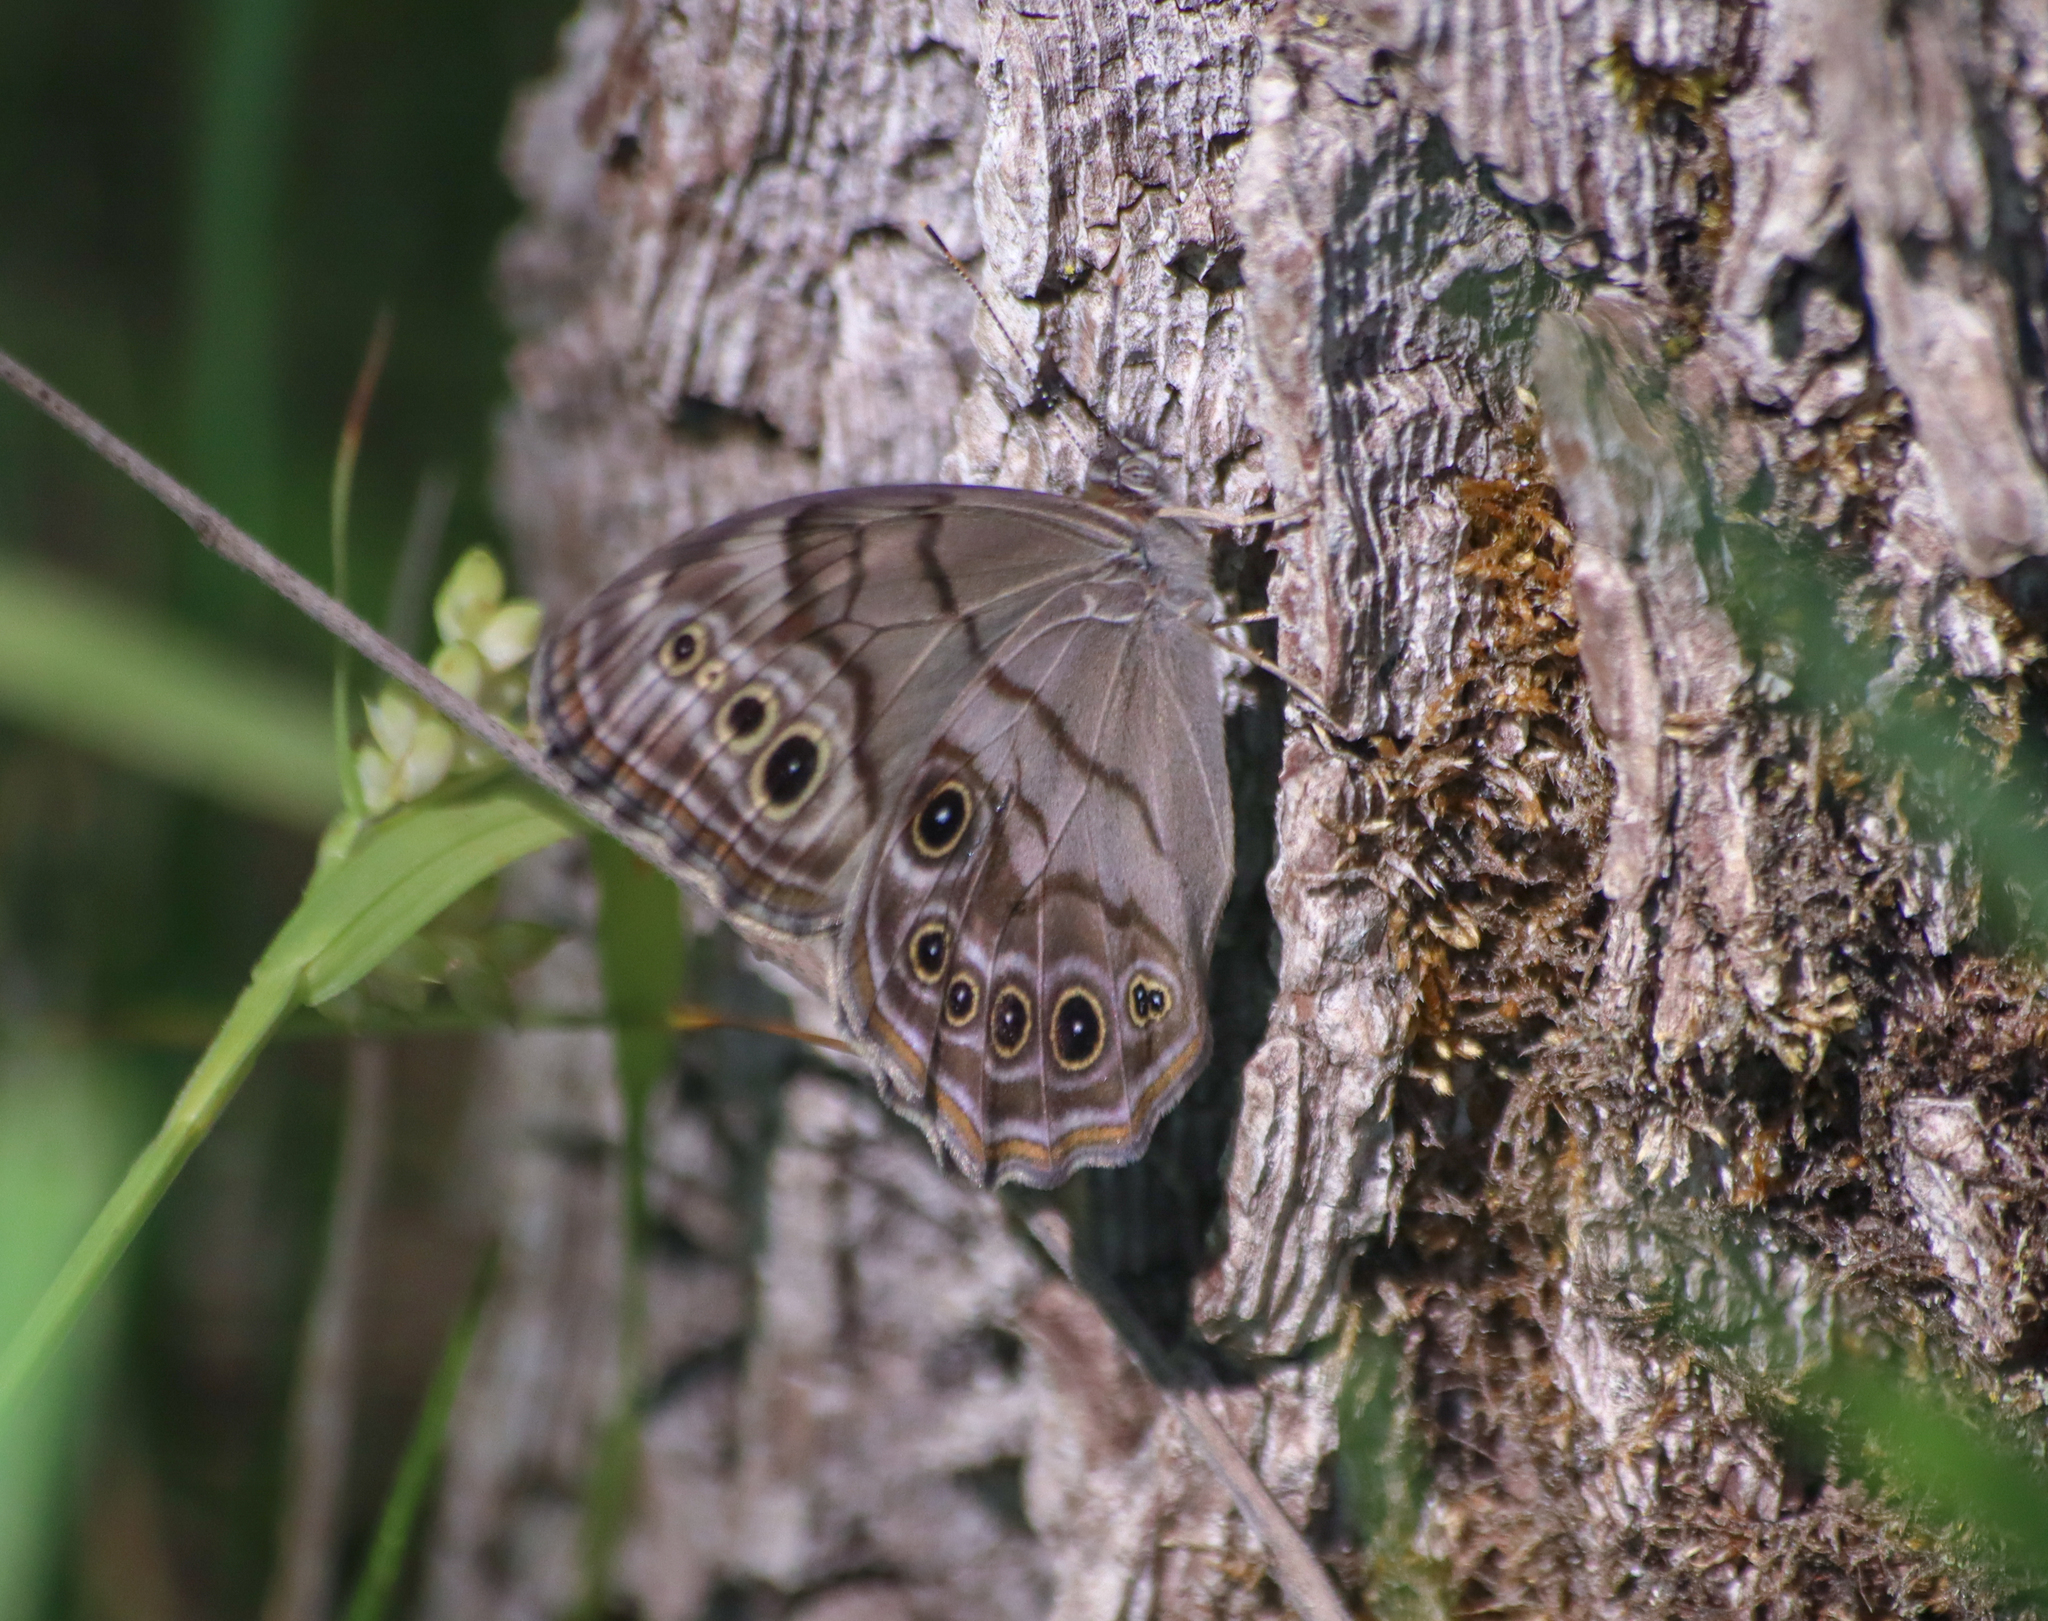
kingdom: Animalia
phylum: Arthropoda
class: Insecta
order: Lepidoptera
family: Nymphalidae
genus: Lethe
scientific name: Lethe anthedon
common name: Northern pearly-eye
